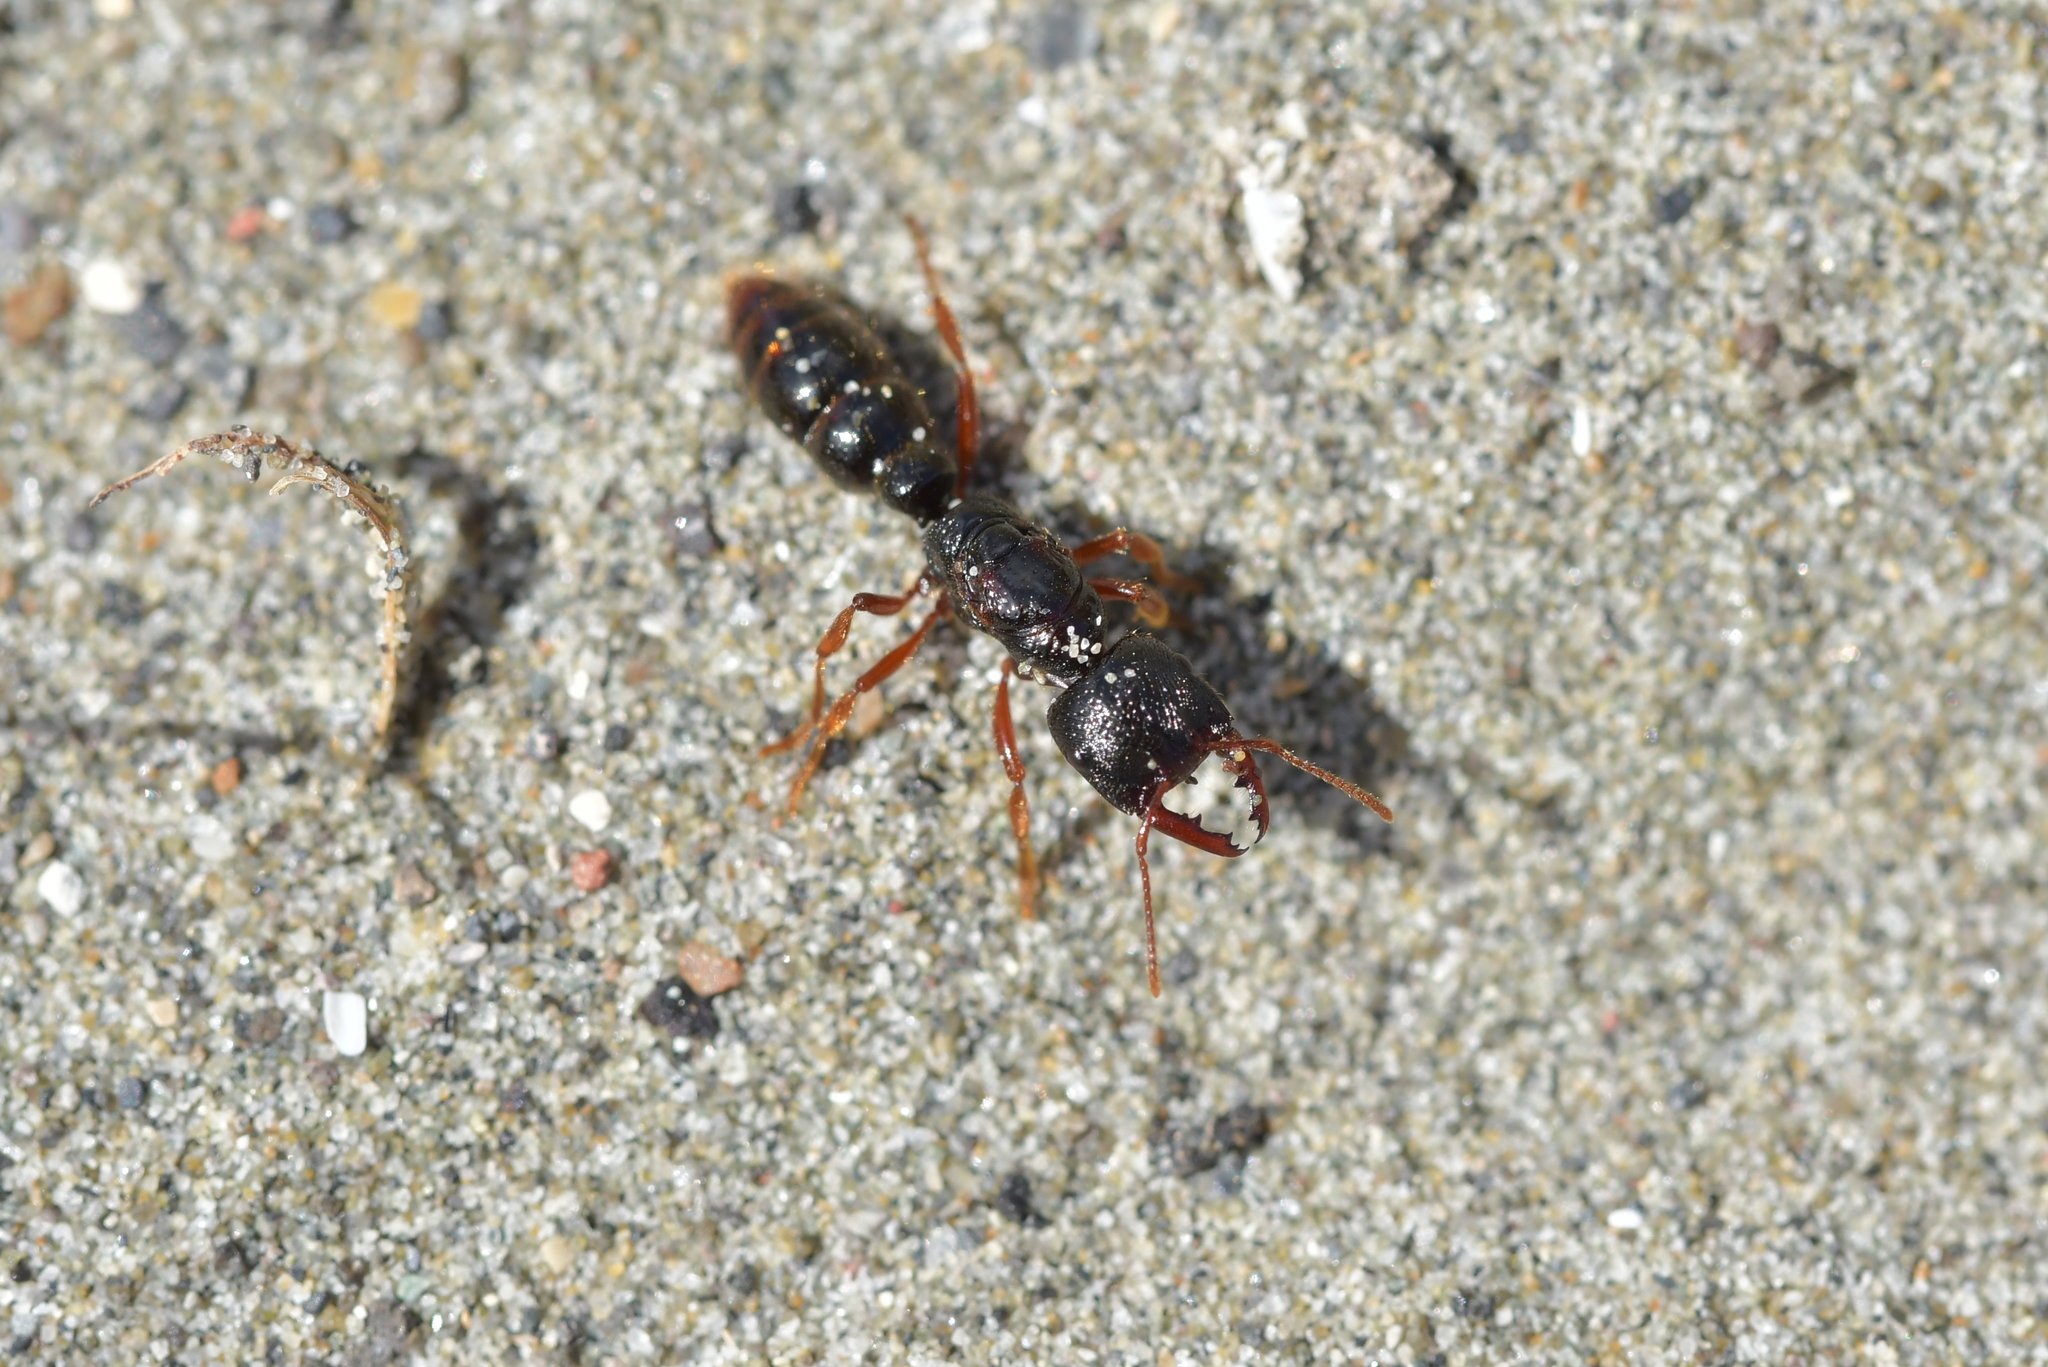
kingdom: Animalia
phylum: Arthropoda
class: Insecta
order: Hymenoptera
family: Formicidae
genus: Amblyopone
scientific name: Amblyopone australis
